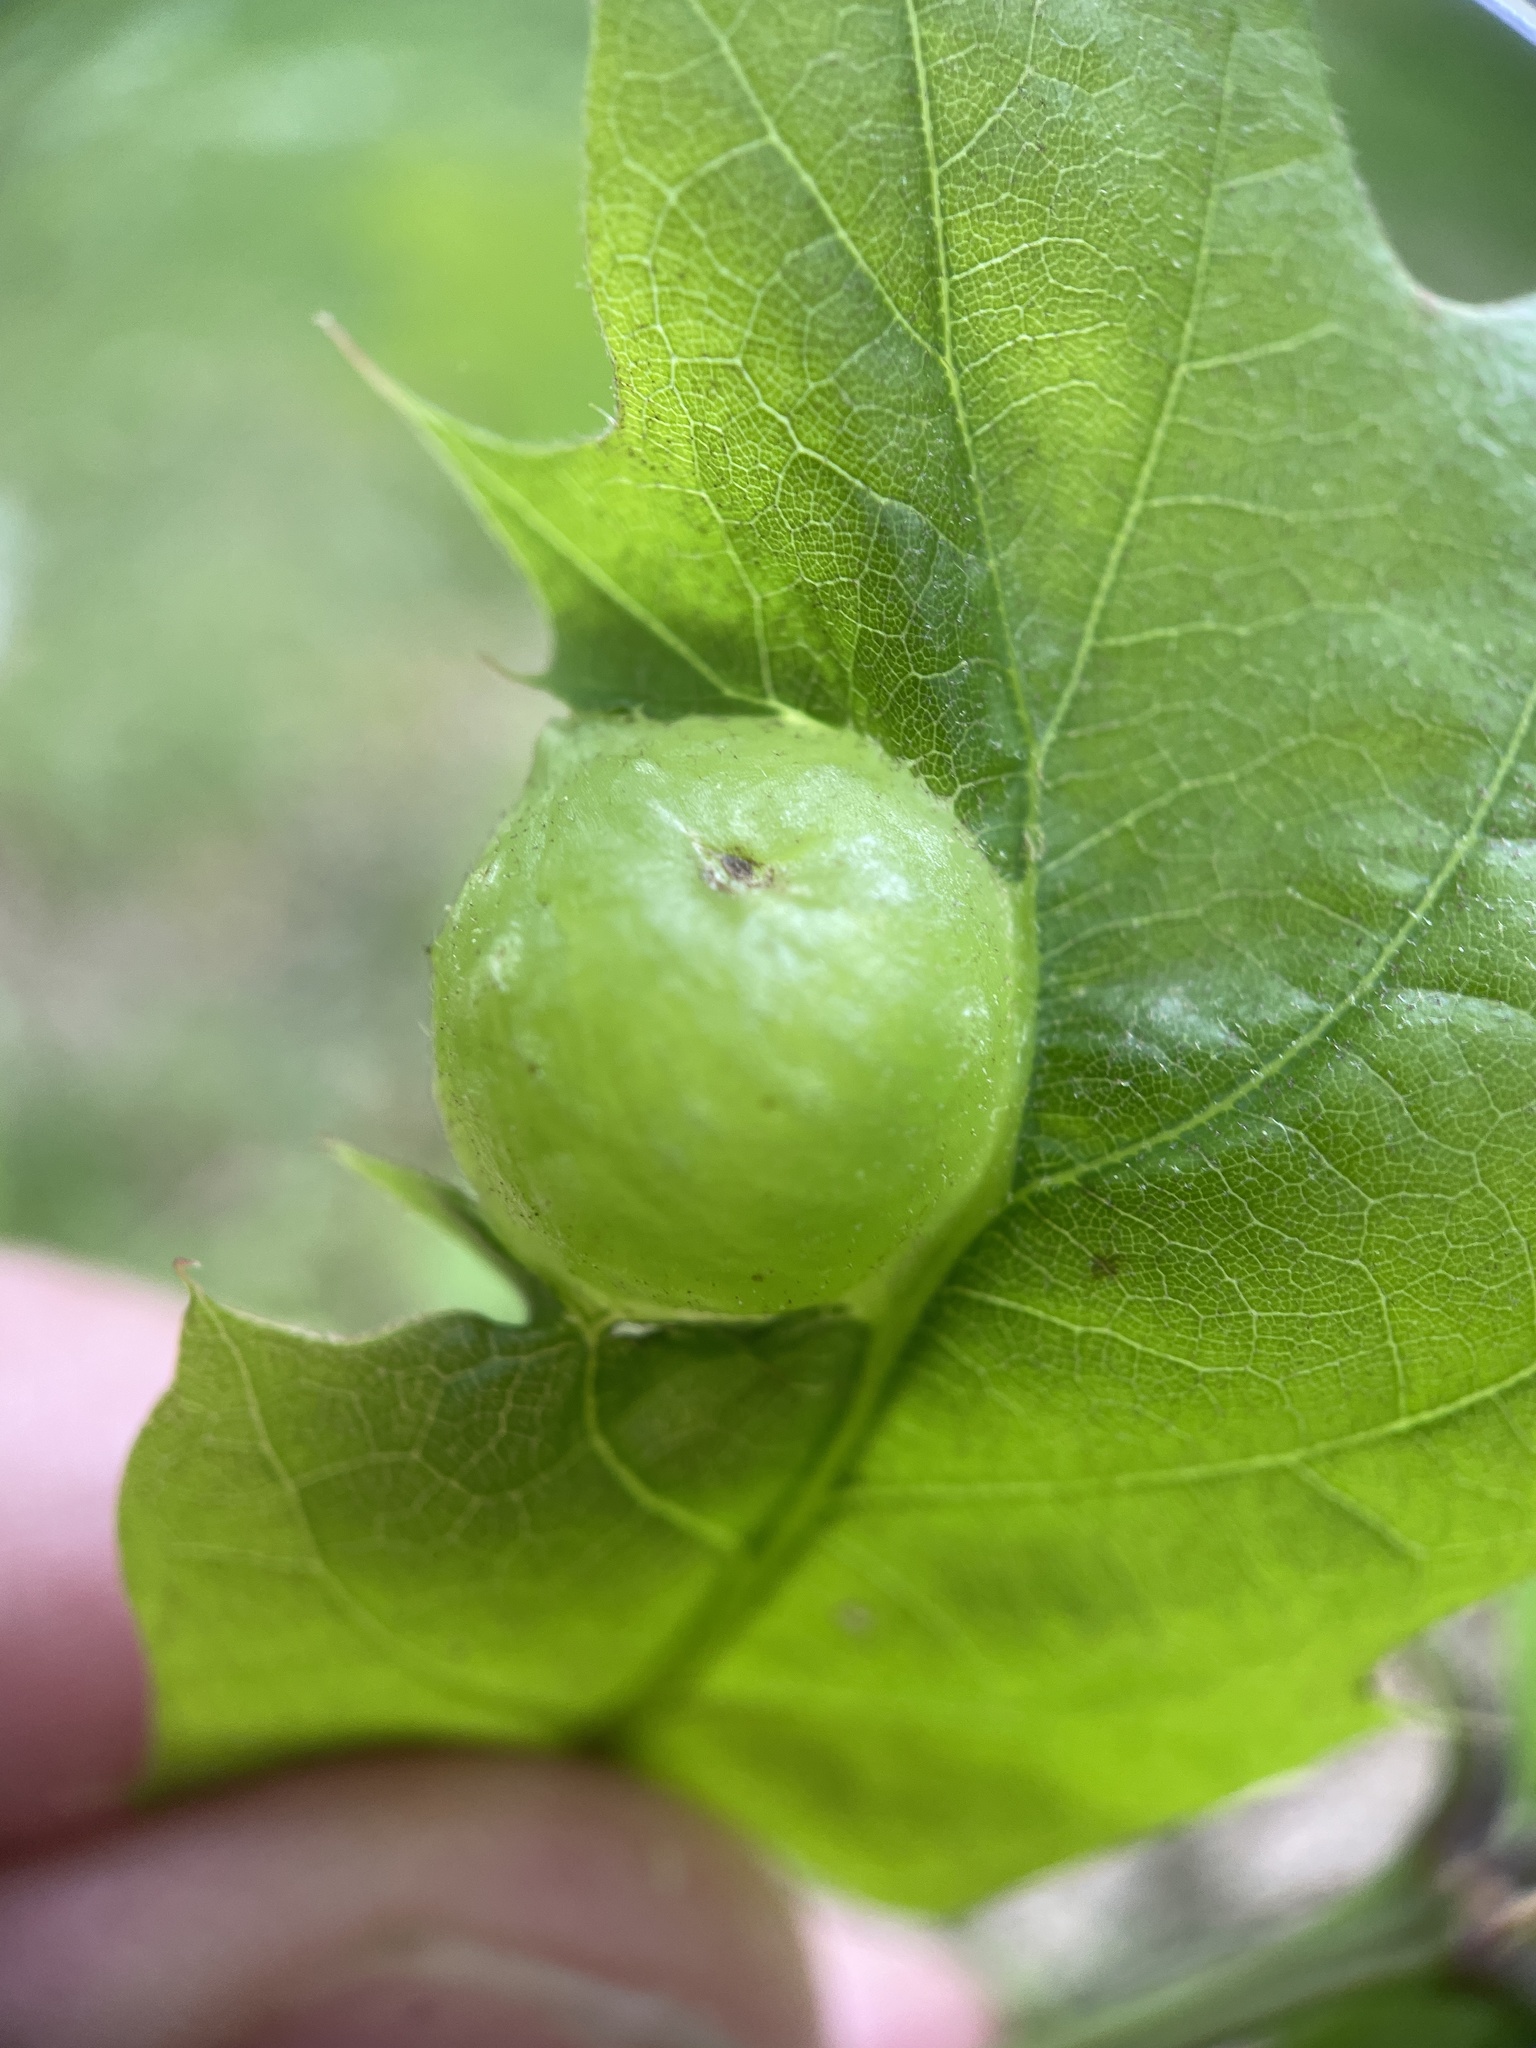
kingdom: Animalia
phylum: Arthropoda
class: Insecta
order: Hymenoptera
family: Cynipidae
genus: Dryocosmus
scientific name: Dryocosmus quercuspalustris
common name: Succulent oak gall wasp
